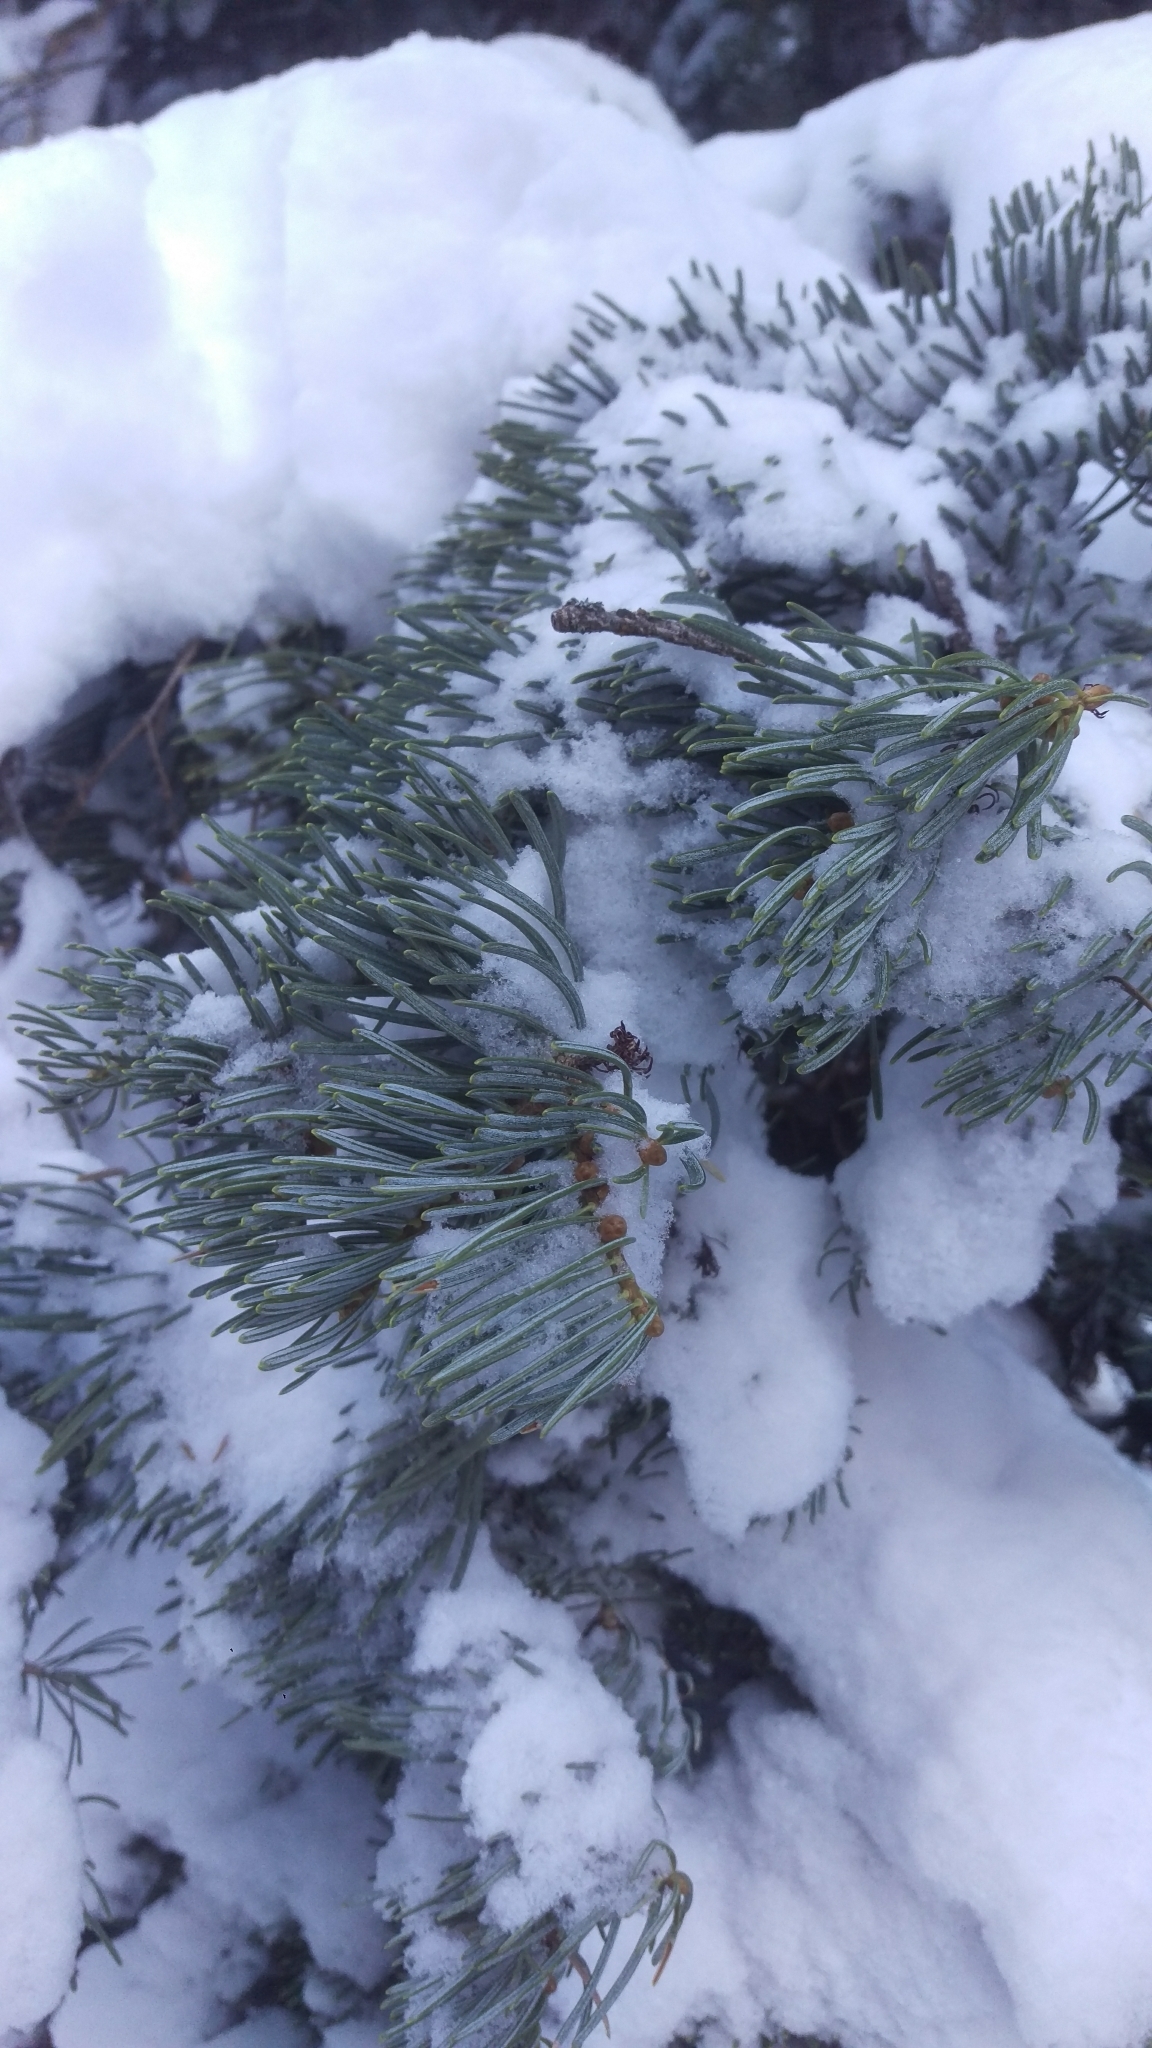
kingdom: Plantae
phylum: Tracheophyta
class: Pinopsida
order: Pinales
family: Pinaceae
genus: Abies
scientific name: Abies concolor
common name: Colorado fir
